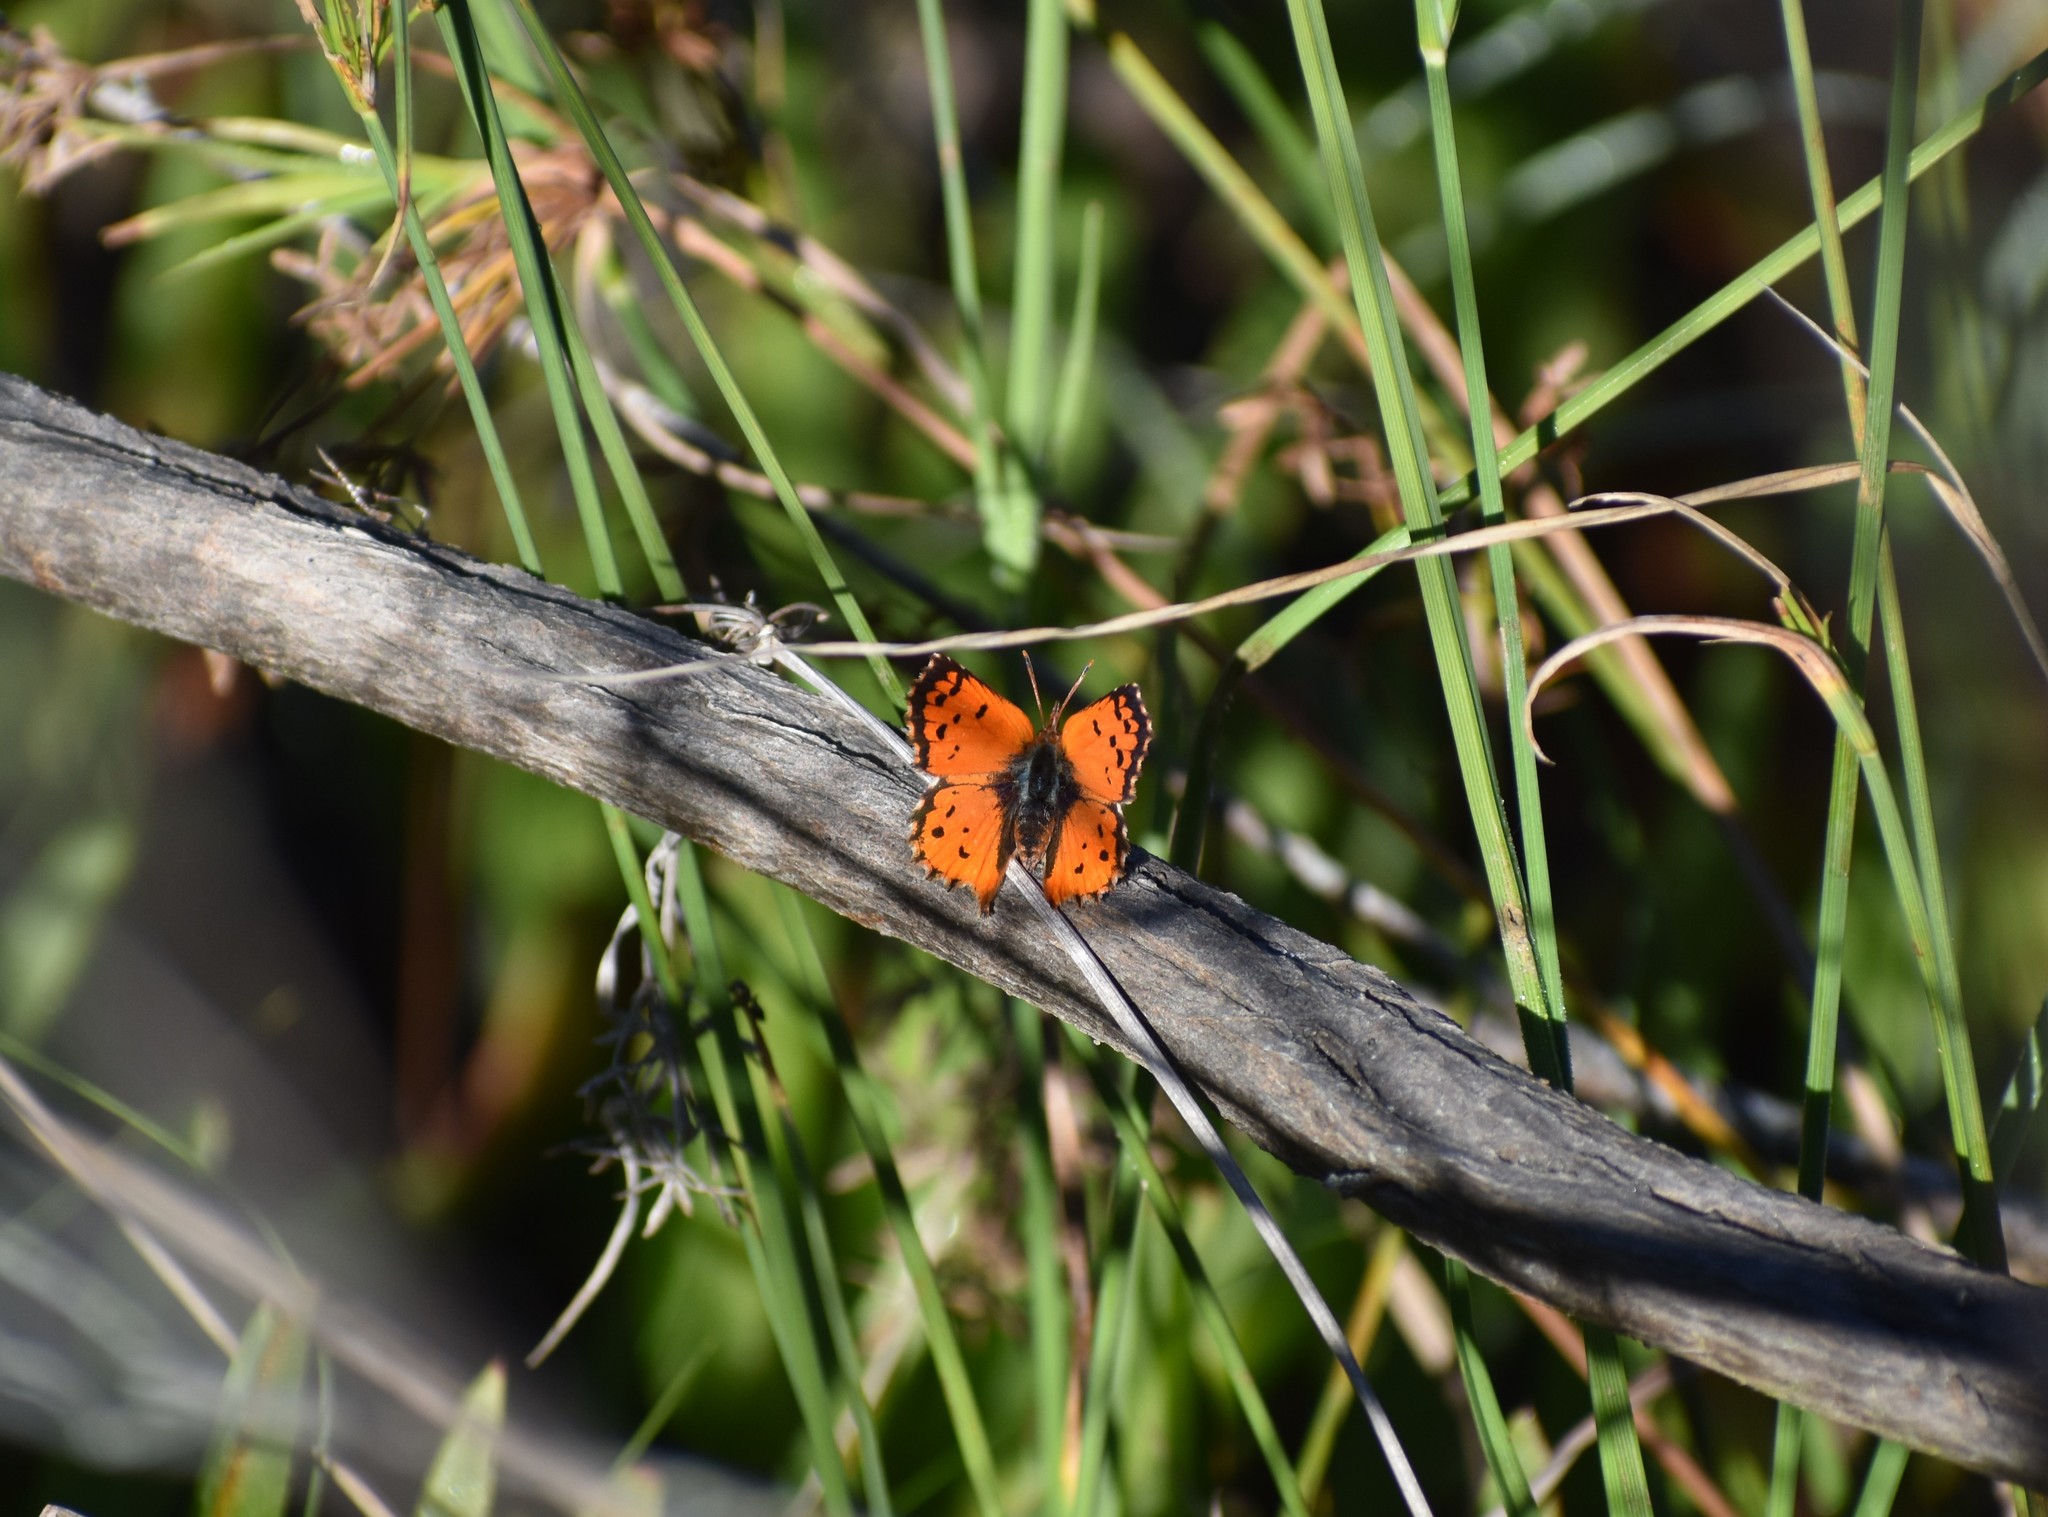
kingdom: Animalia
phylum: Arthropoda
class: Insecta
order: Lepidoptera
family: Lycaenidae
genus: Chrysoritis
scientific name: Chrysoritis
